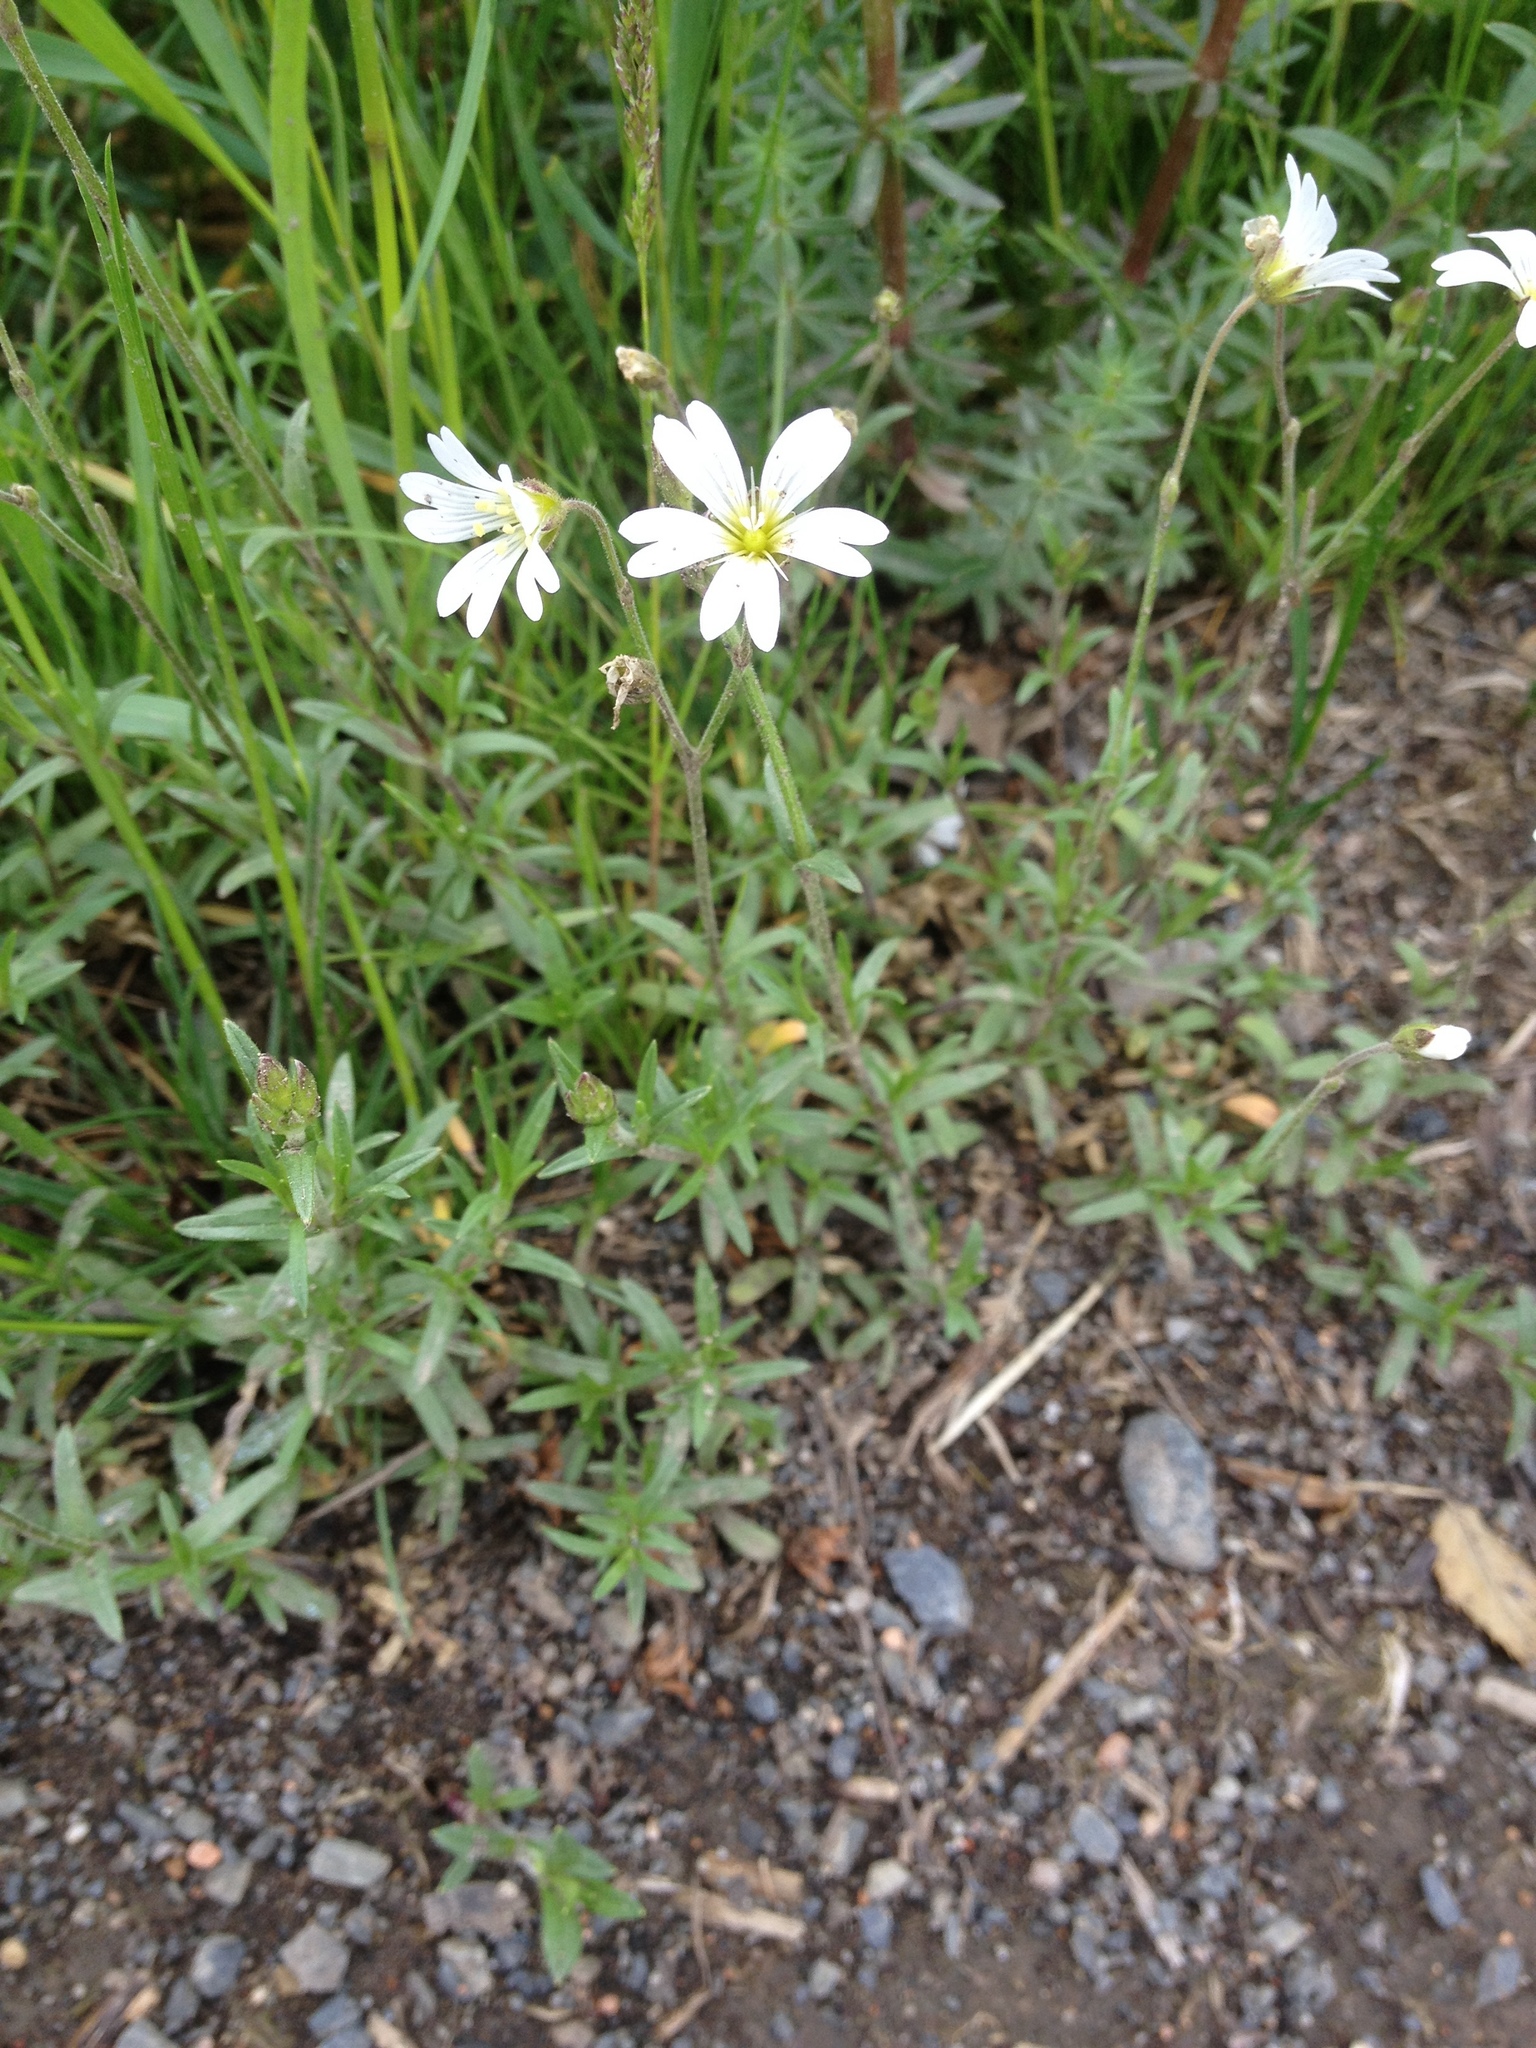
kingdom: Plantae
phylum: Tracheophyta
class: Magnoliopsida
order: Caryophyllales
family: Caryophyllaceae
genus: Cerastium
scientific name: Cerastium arvense
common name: Field mouse-ear
